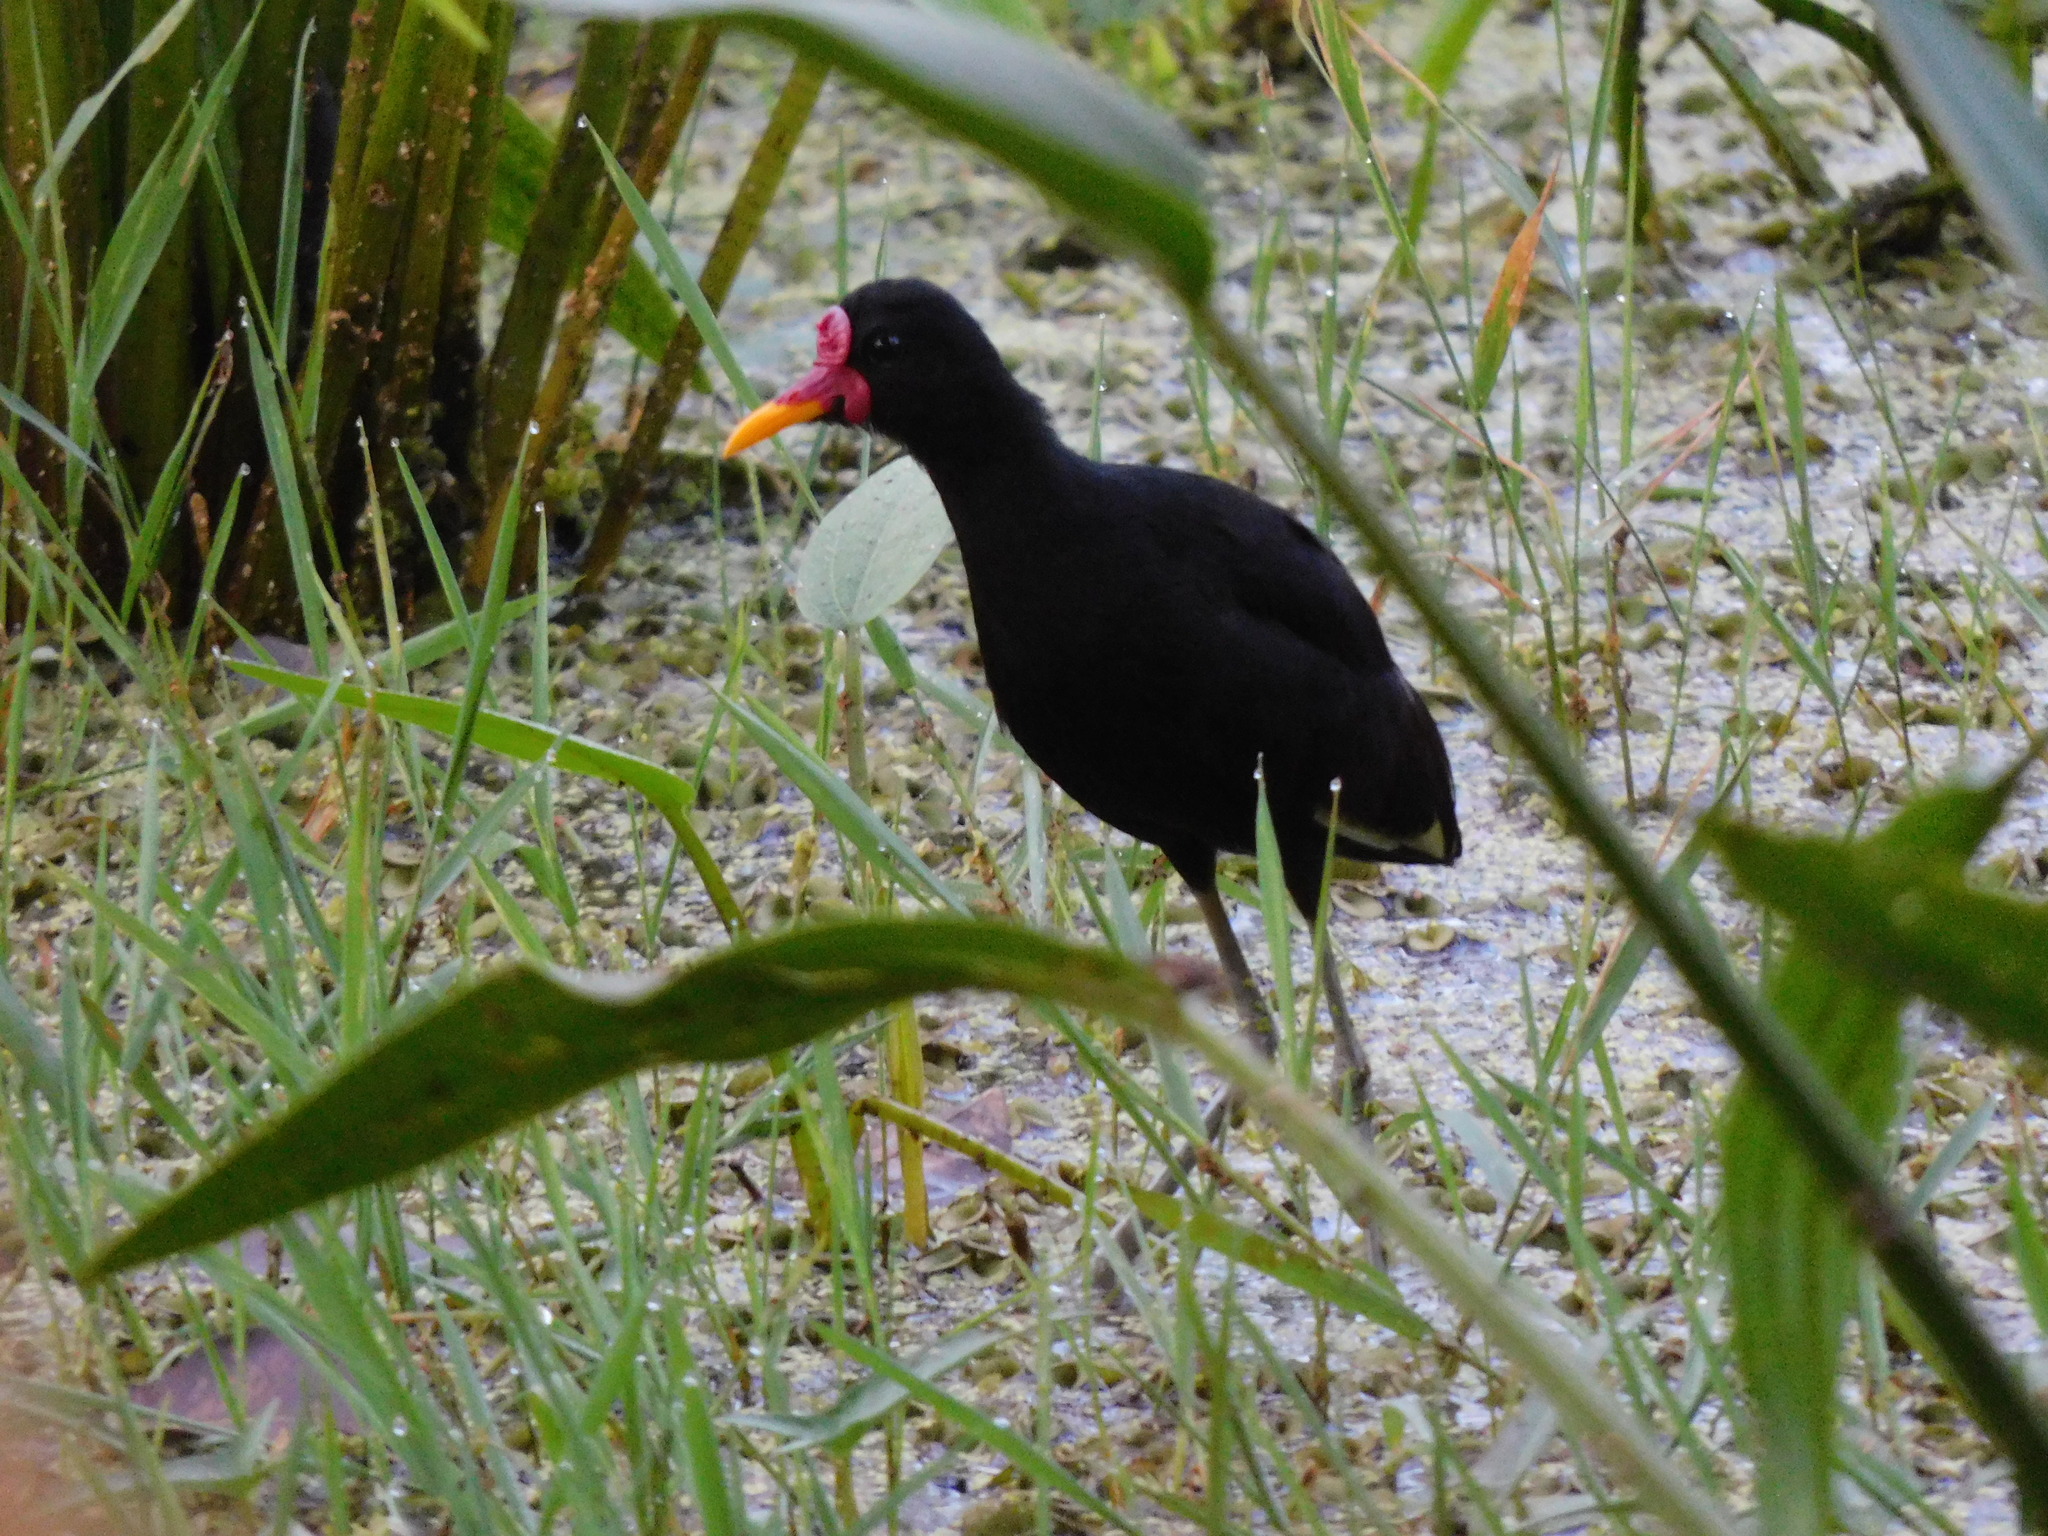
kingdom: Animalia
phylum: Chordata
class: Aves
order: Charadriiformes
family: Jacanidae
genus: Jacana
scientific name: Jacana jacana
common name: Wattled jacana
